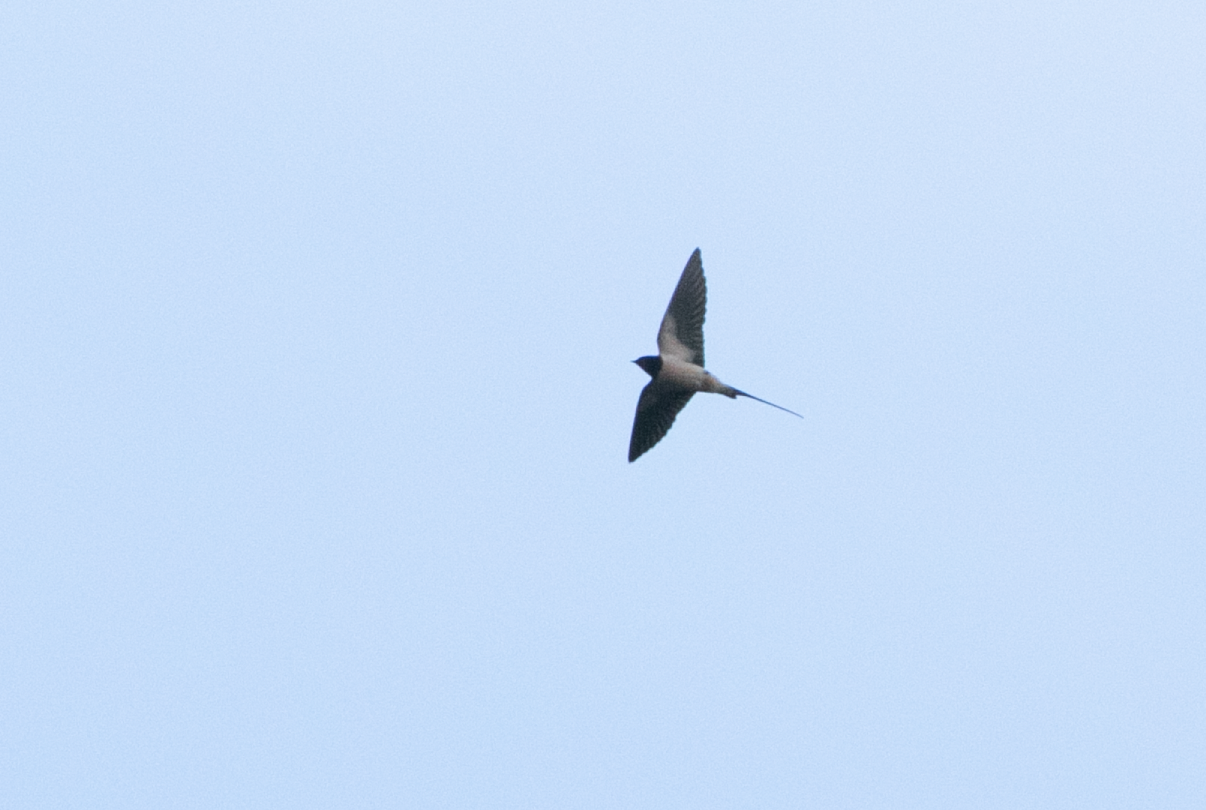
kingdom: Animalia
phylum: Chordata
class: Aves
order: Passeriformes
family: Hirundinidae
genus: Hirundo
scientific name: Hirundo rustica
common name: Barn swallow
